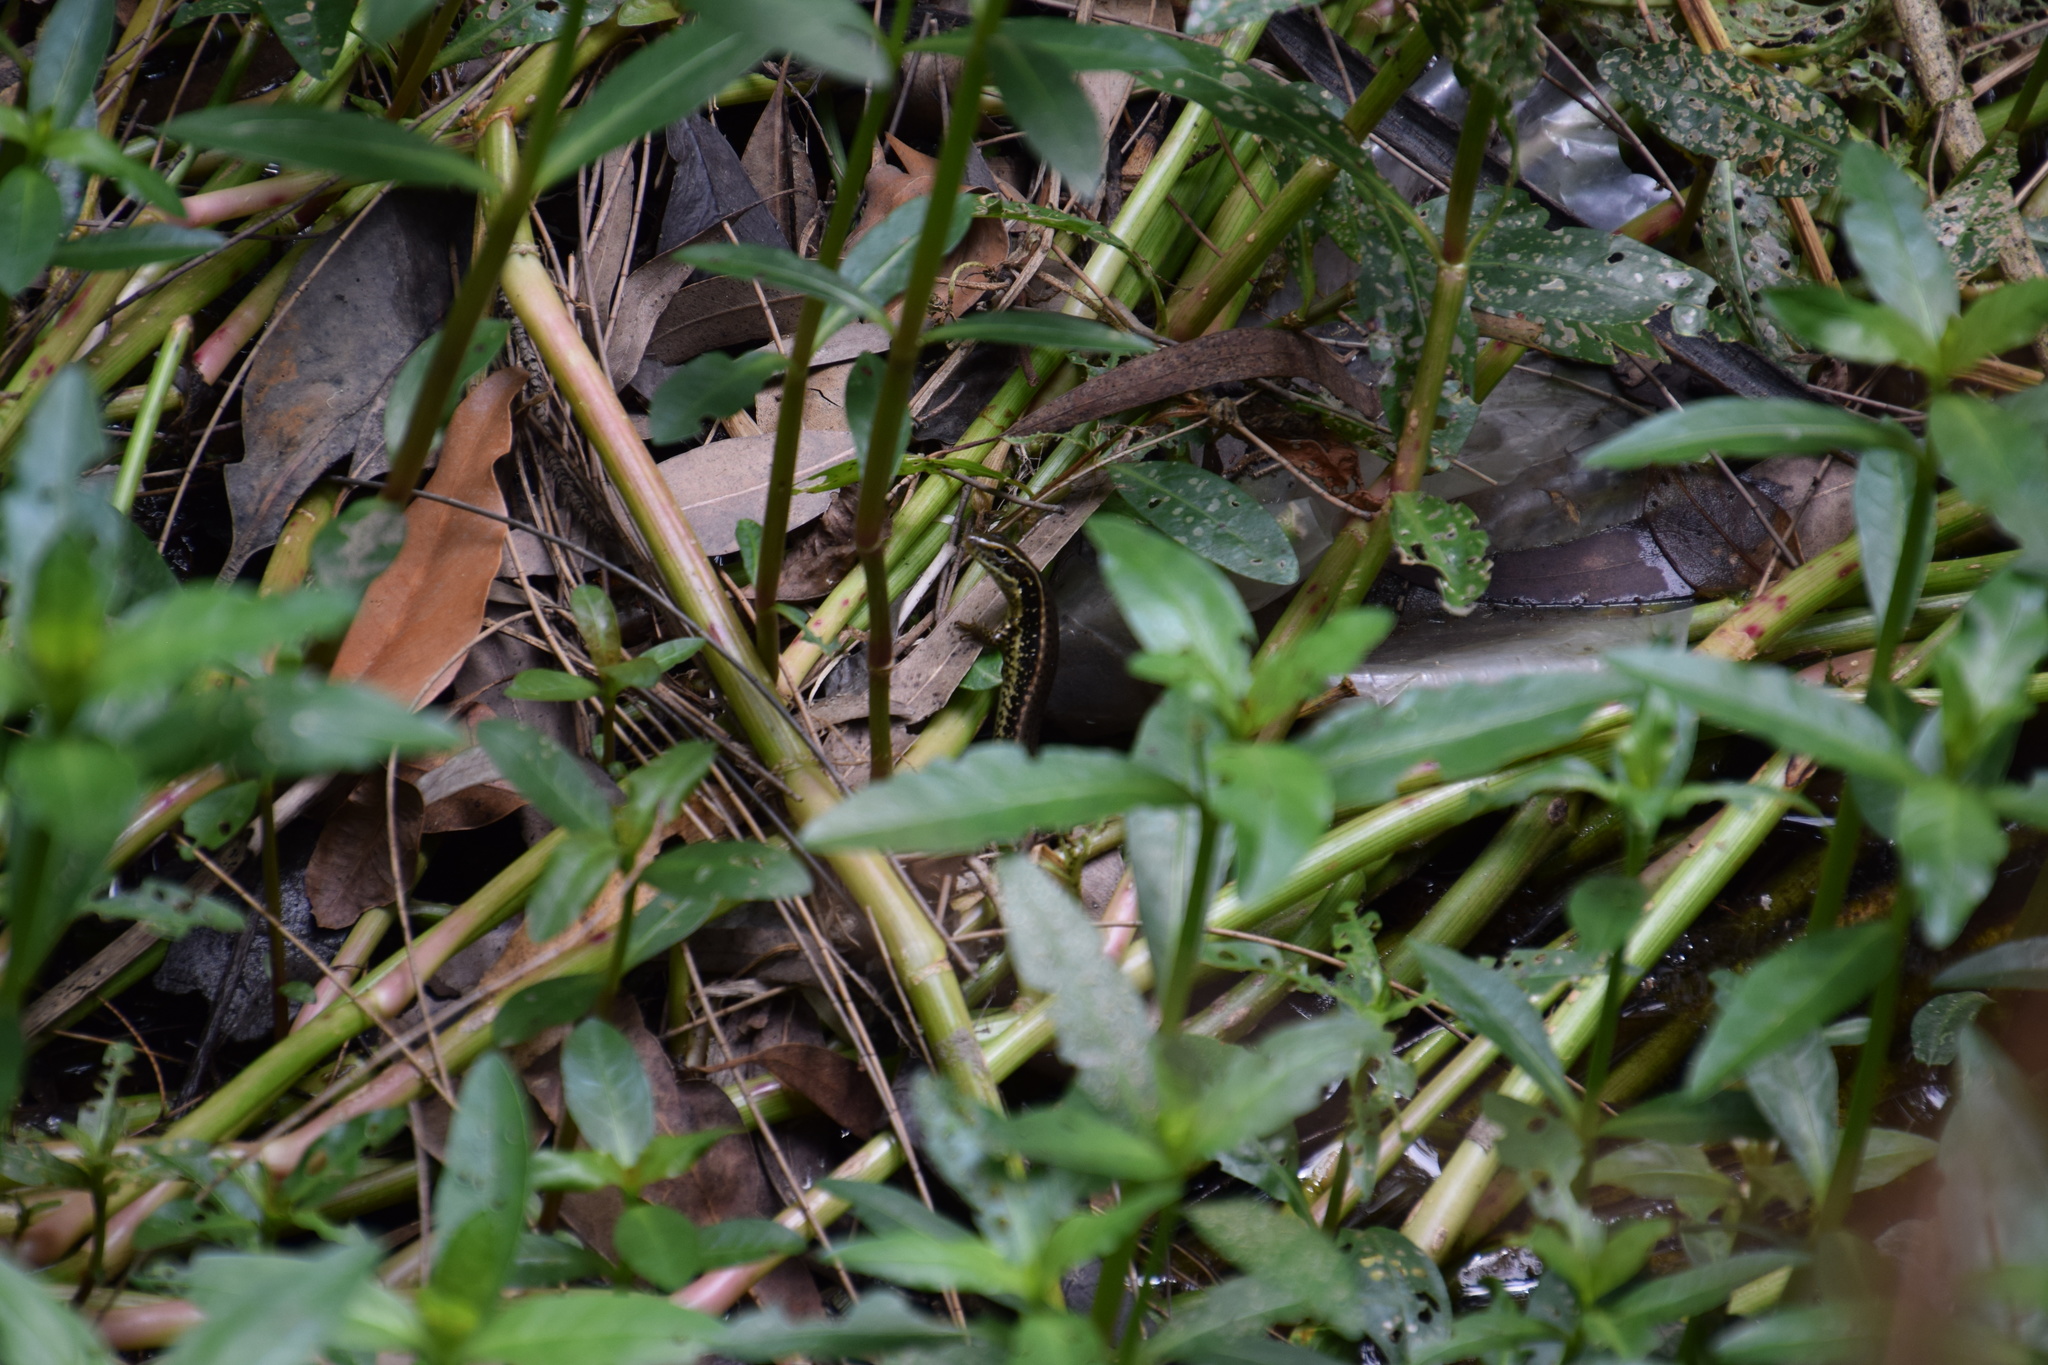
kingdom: Animalia
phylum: Chordata
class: Squamata
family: Scincidae
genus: Eulamprus
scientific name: Eulamprus quoyii
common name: Eastern water skink
